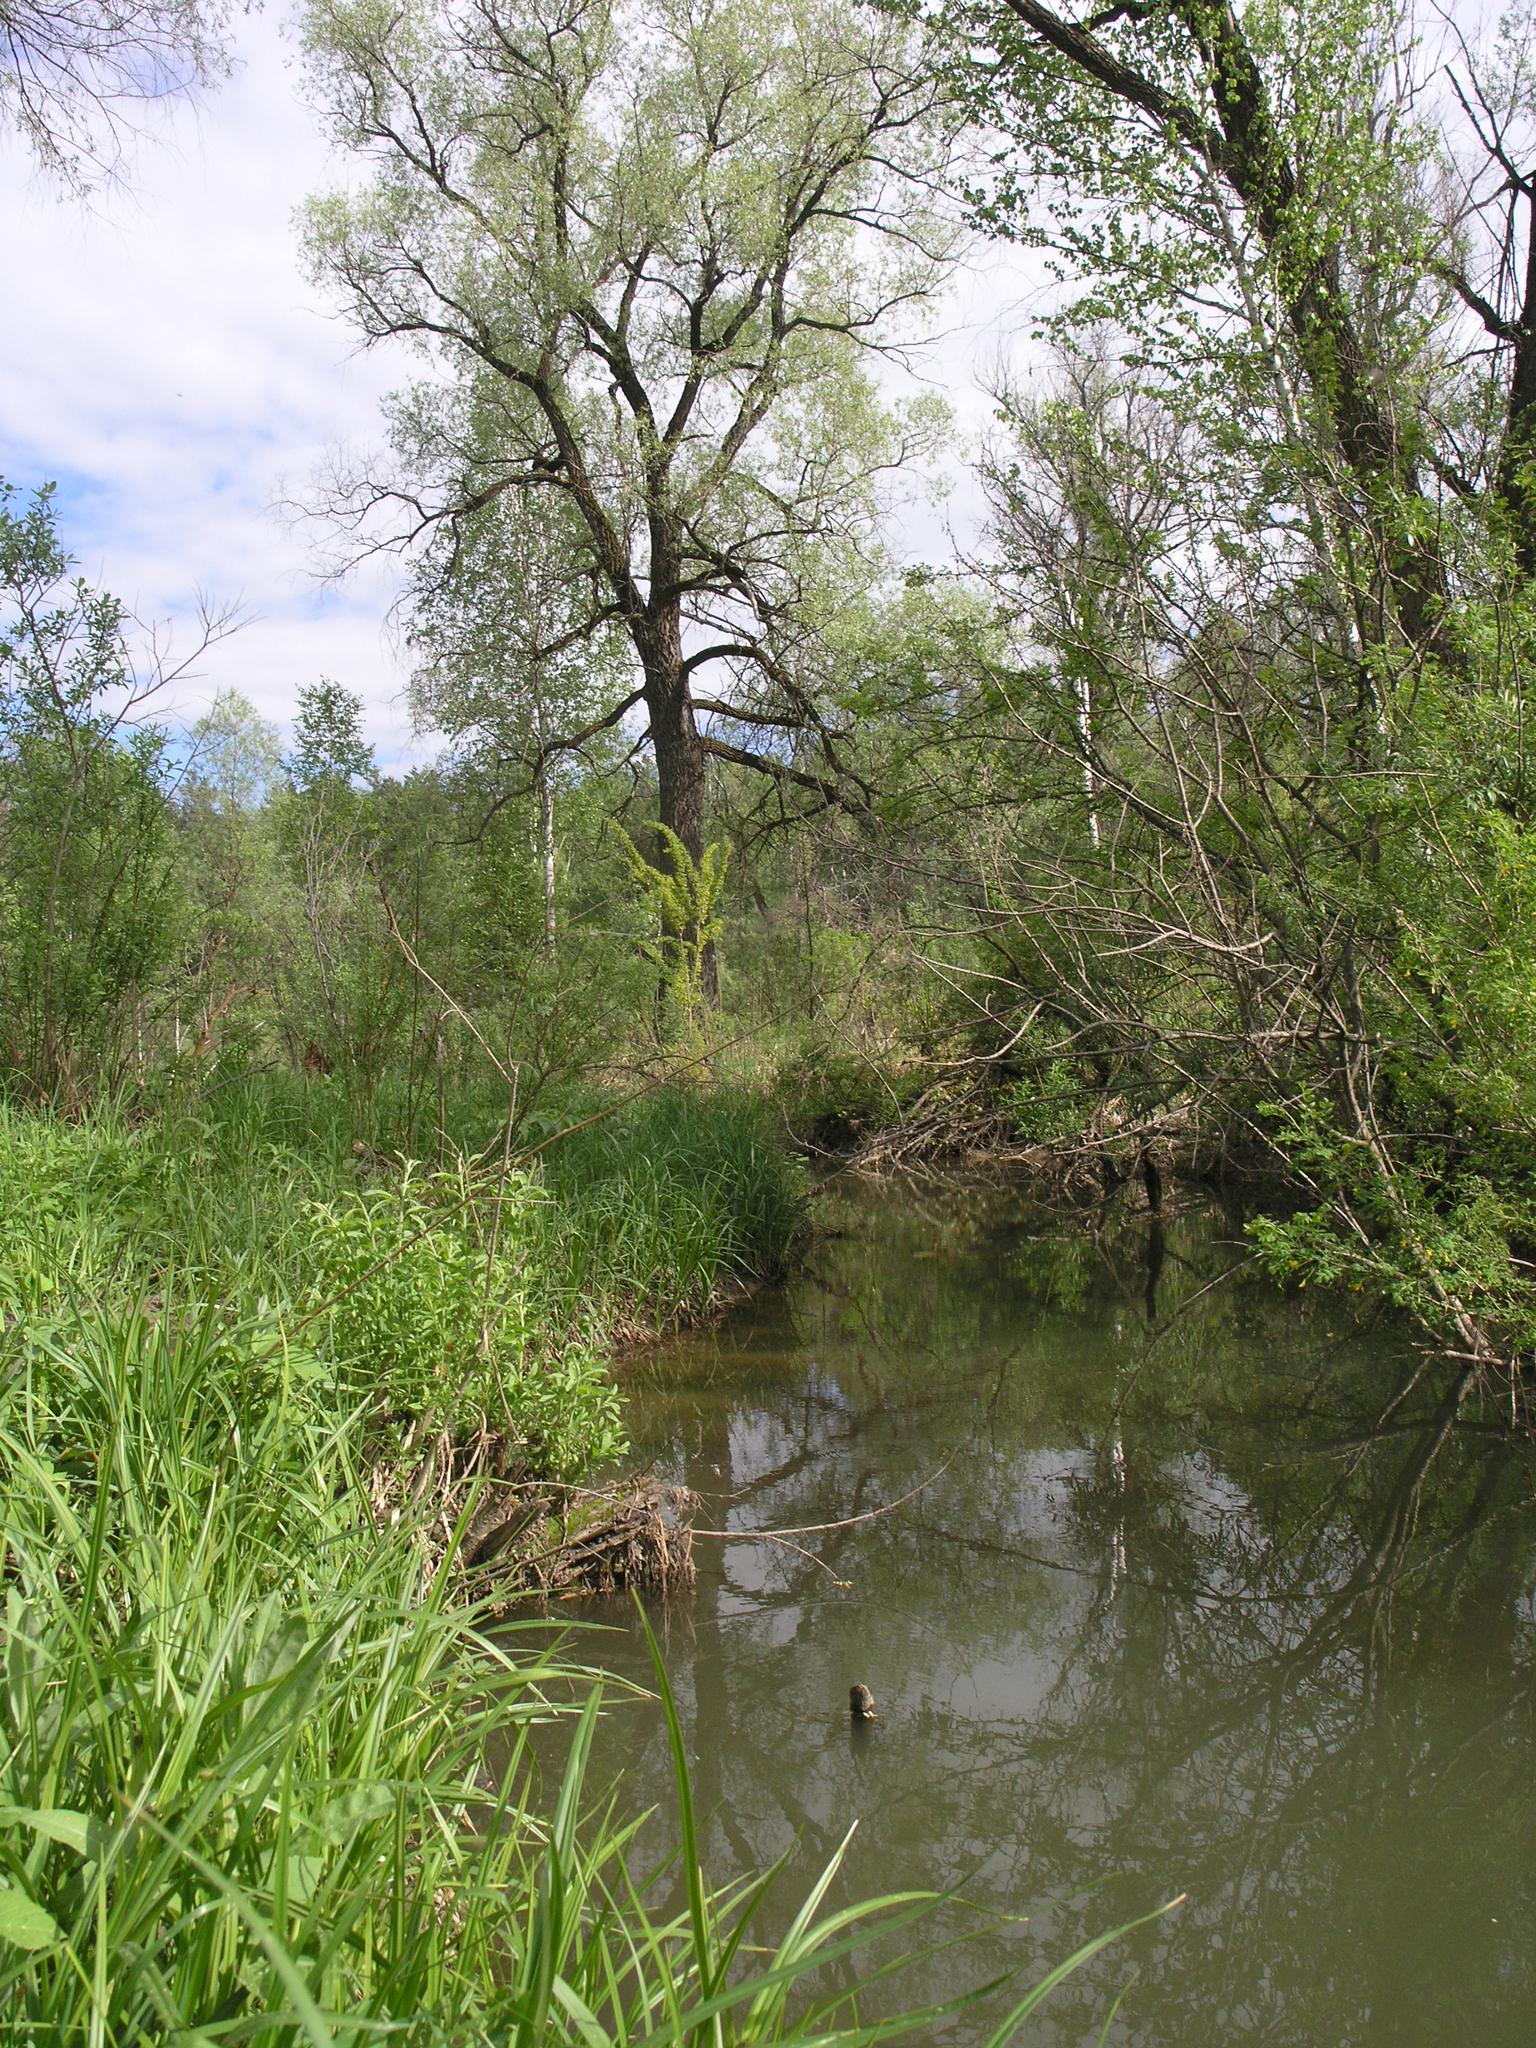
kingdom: Plantae
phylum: Tracheophyta
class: Magnoliopsida
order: Malpighiales
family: Salicaceae
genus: Salix
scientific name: Salix alba
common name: White willow
